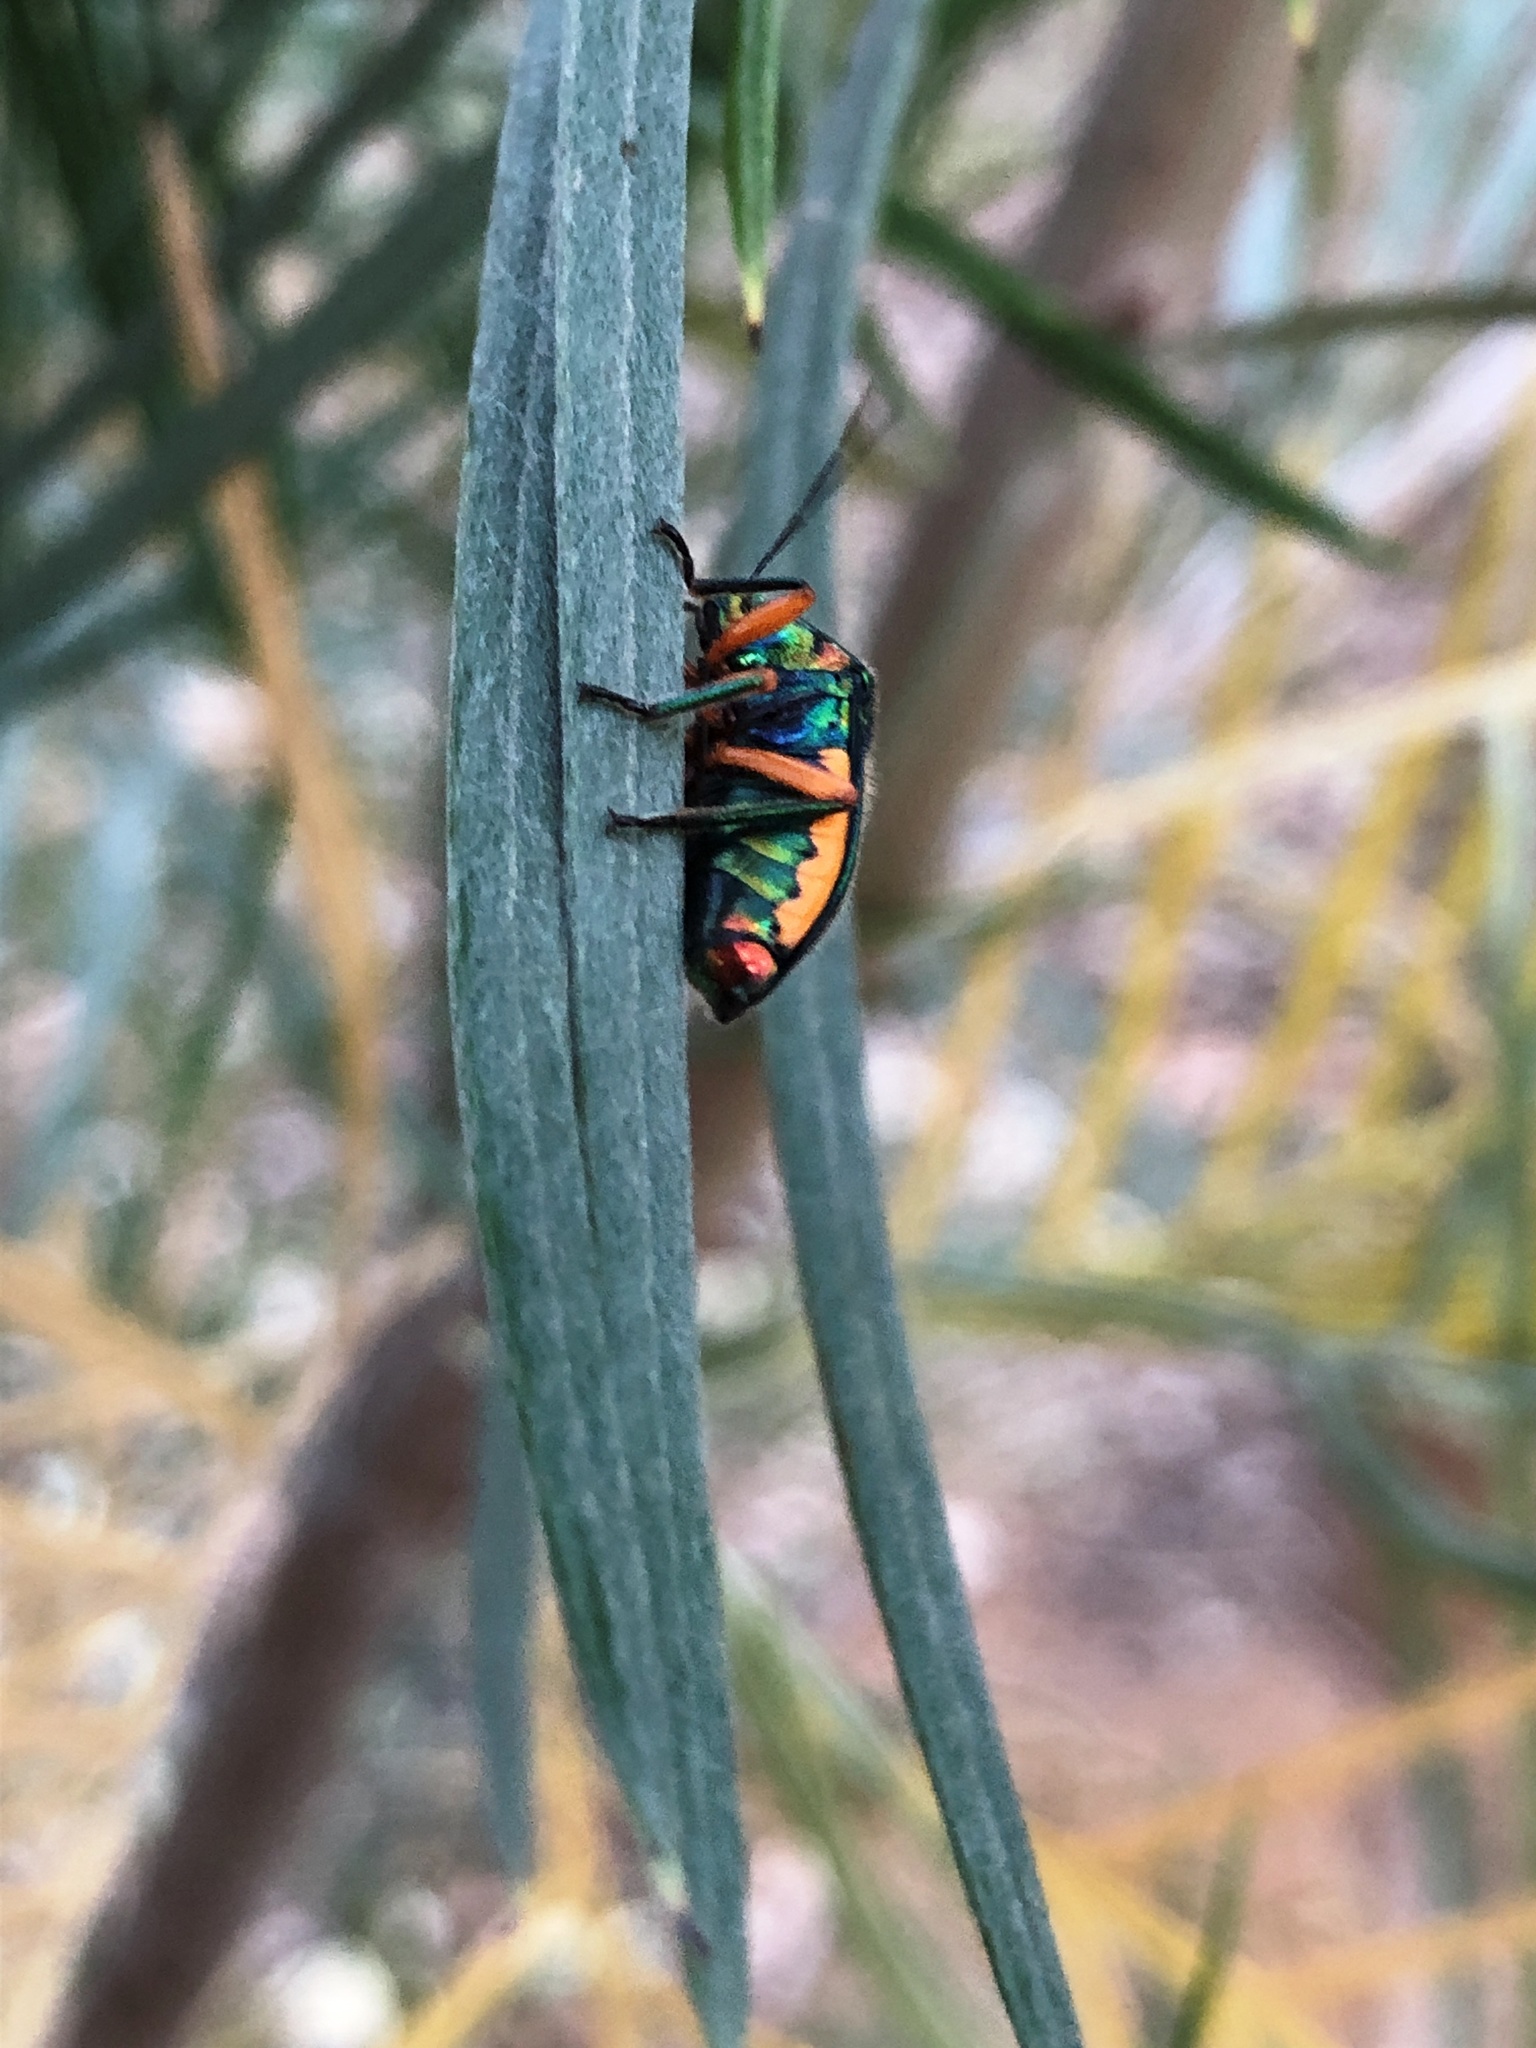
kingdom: Animalia
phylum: Arthropoda
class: Insecta
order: Hemiptera
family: Scutelleridae
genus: Lampromicra
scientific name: Lampromicra senator
